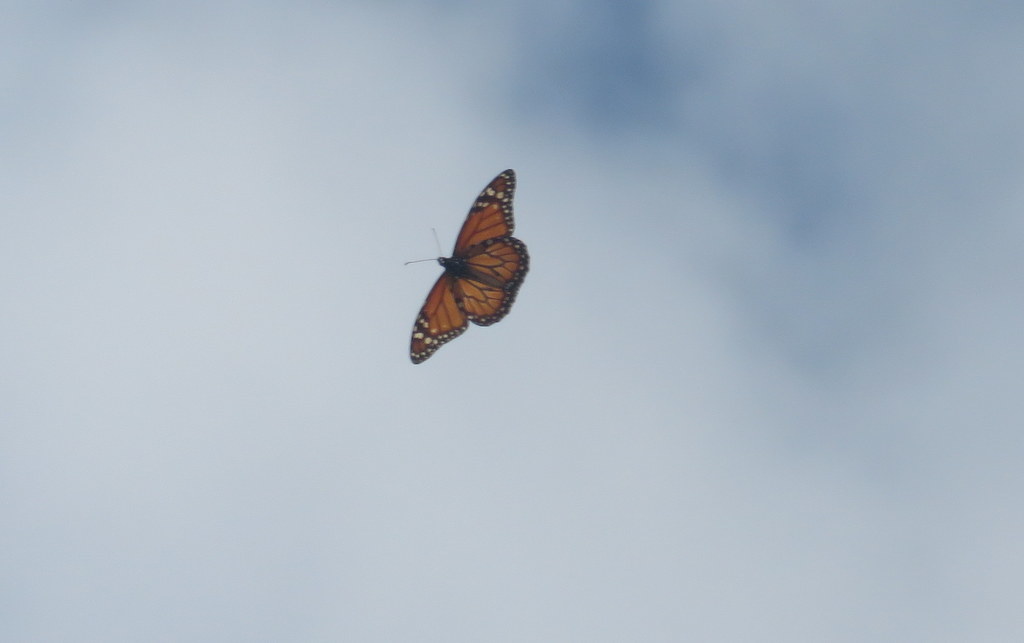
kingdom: Animalia
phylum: Arthropoda
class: Insecta
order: Lepidoptera
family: Nymphalidae
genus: Danaus
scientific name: Danaus erippus
